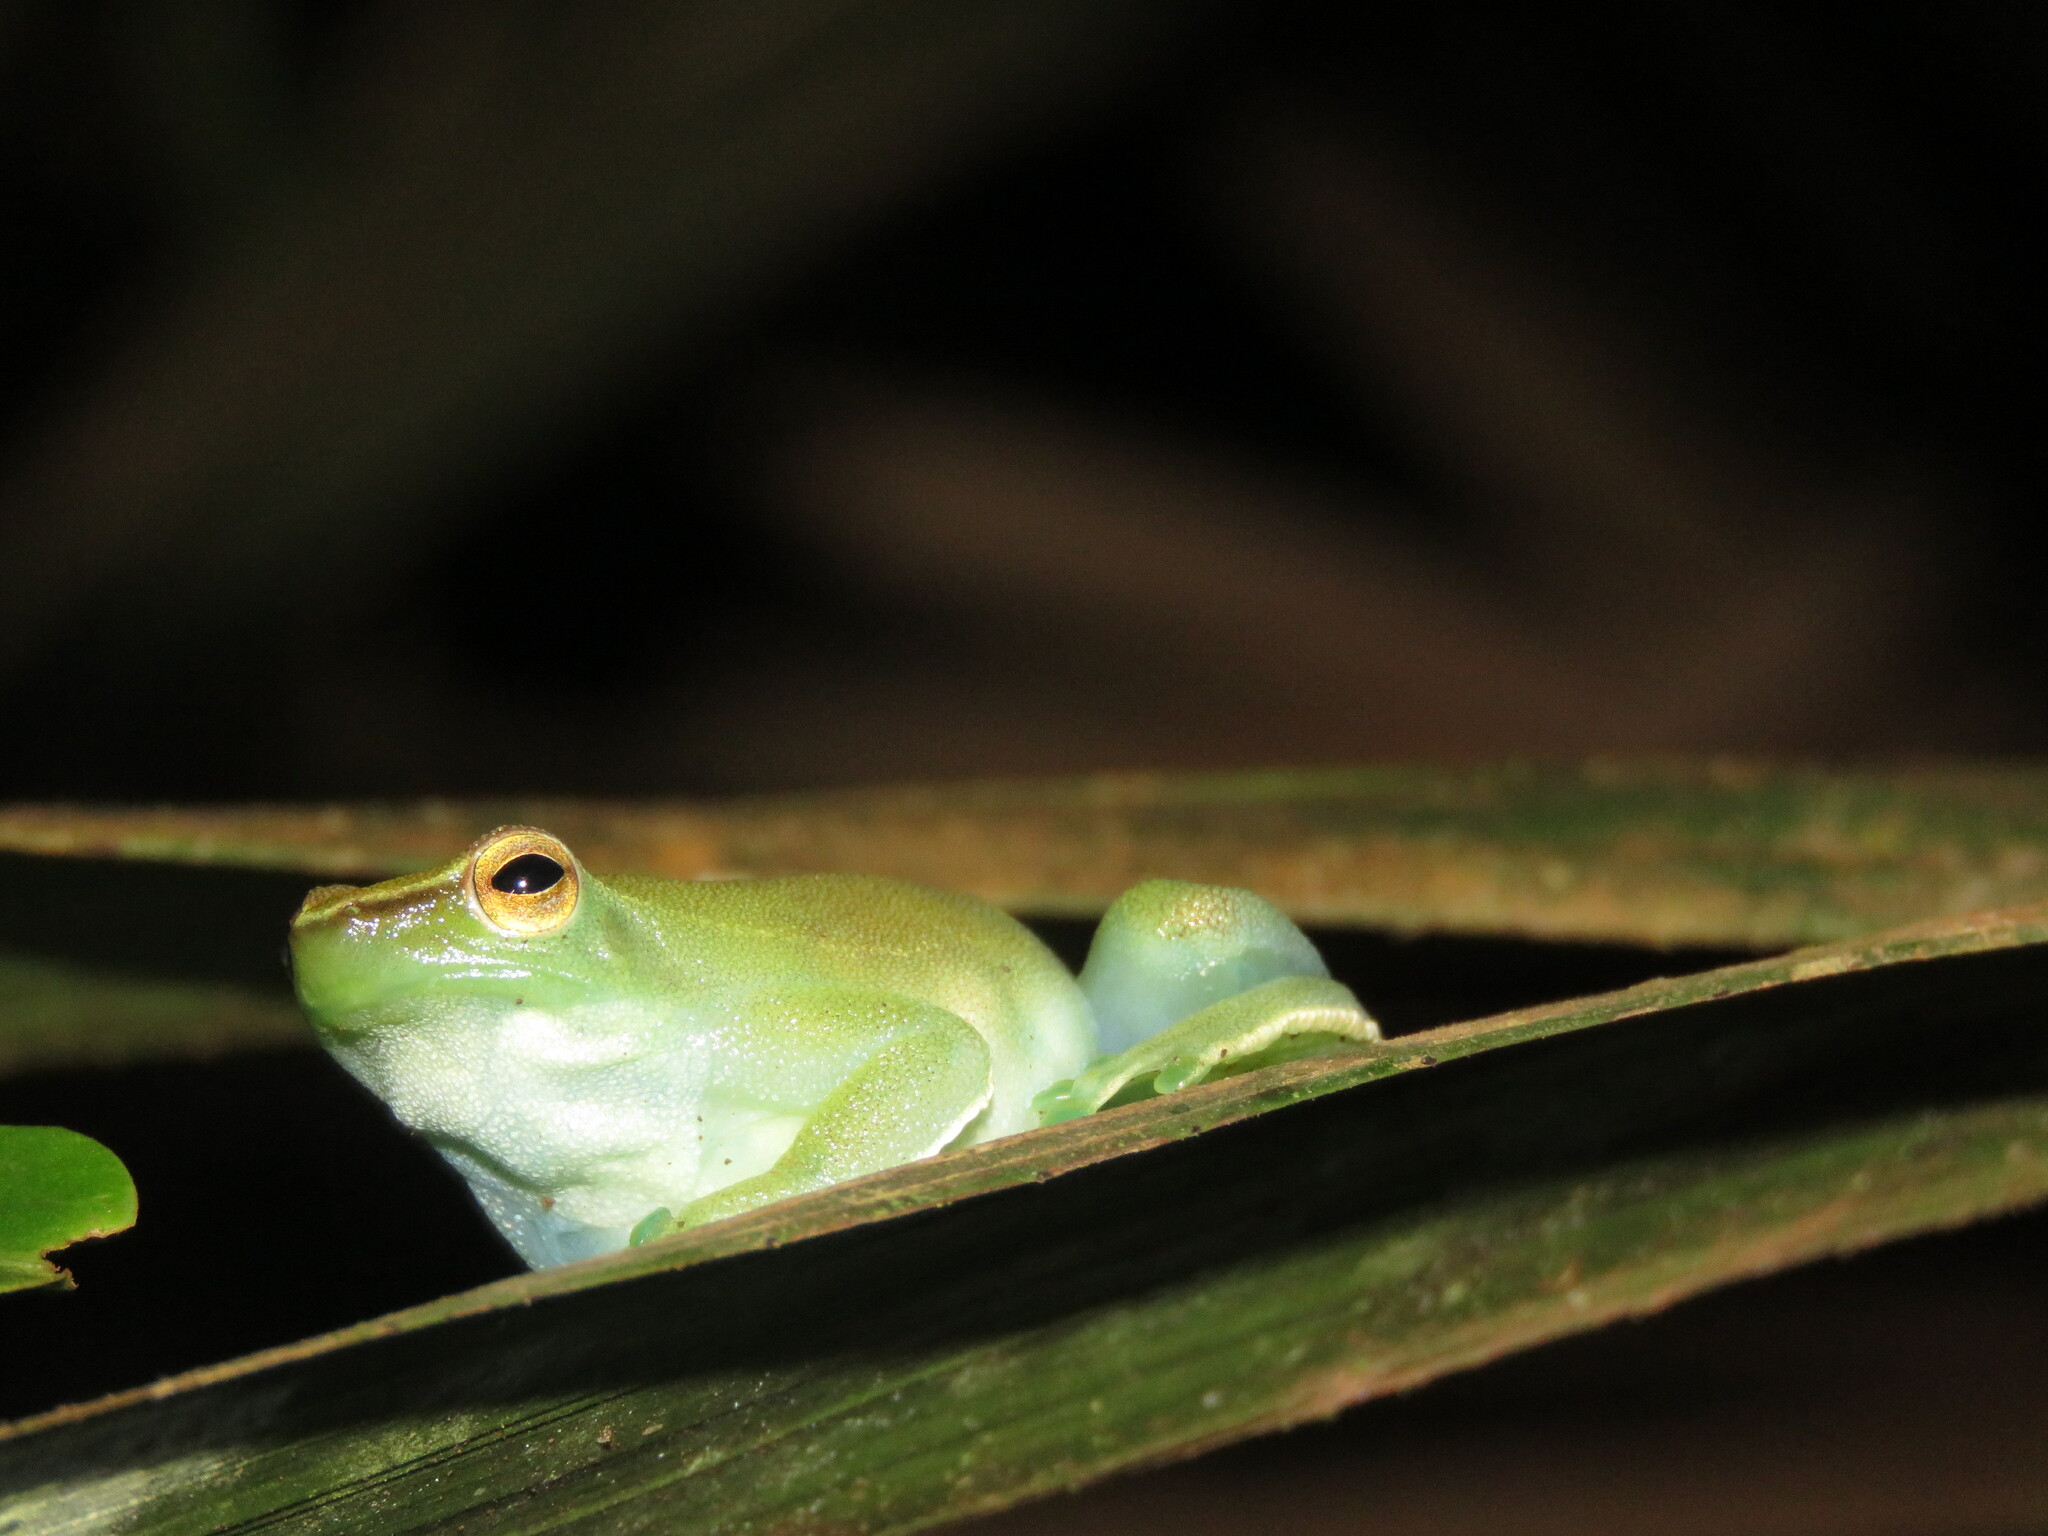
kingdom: Animalia
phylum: Chordata
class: Amphibia
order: Anura
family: Hylidae
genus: Sphaenorhynchus
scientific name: Sphaenorhynchus lacteus
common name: Orinoco lime treefrog
